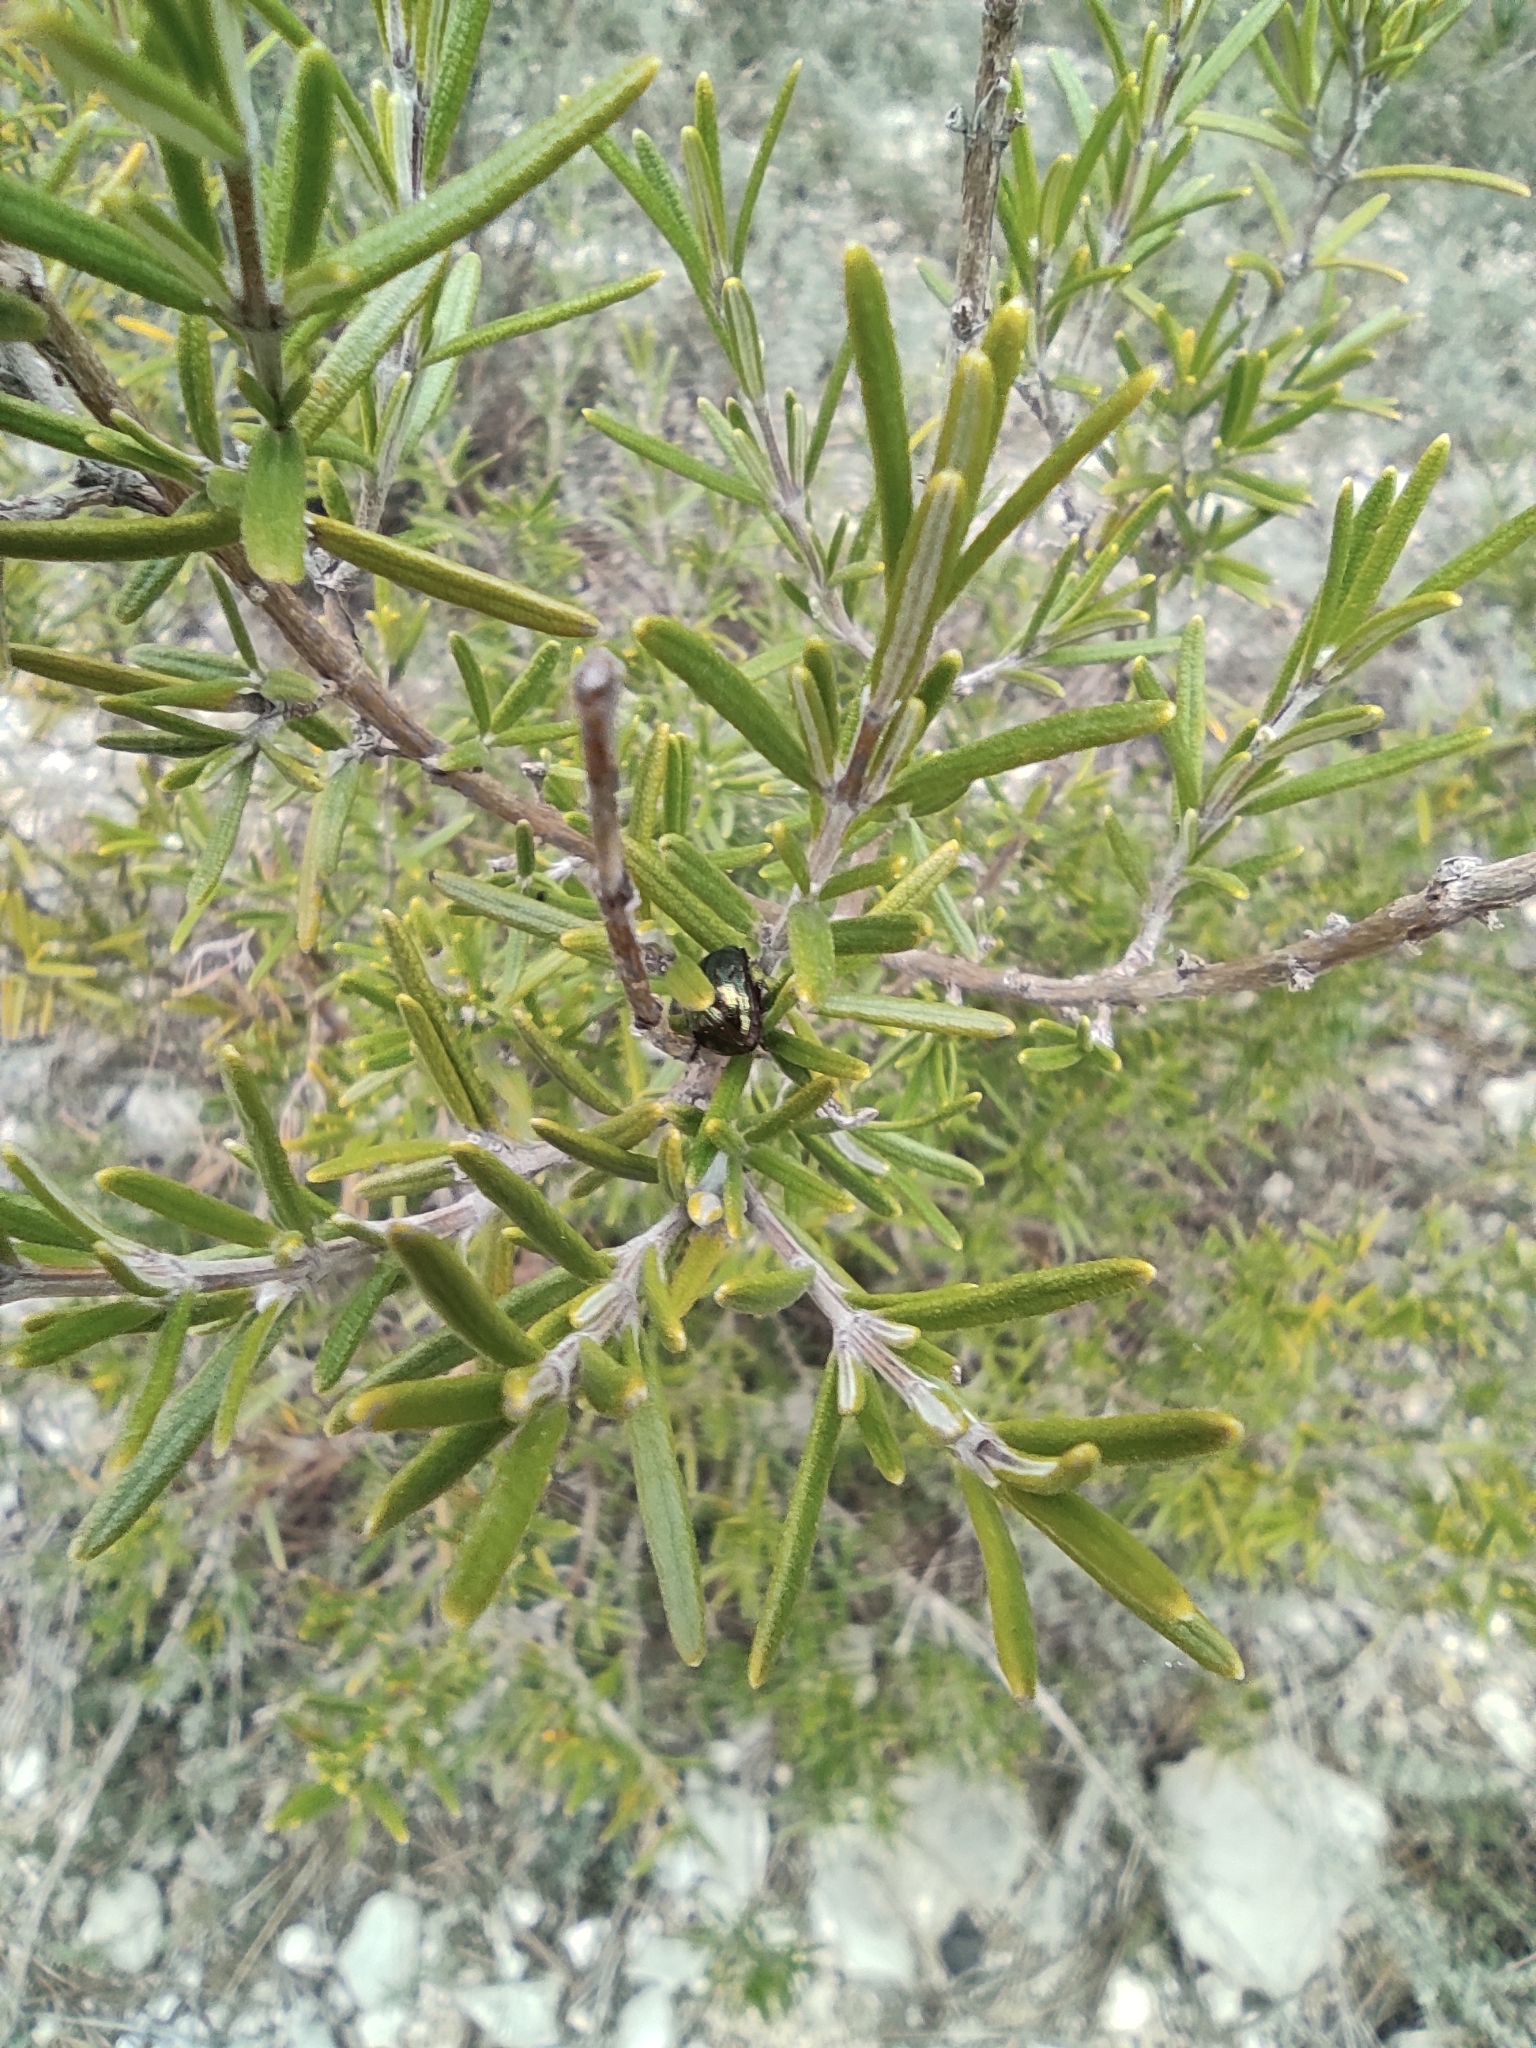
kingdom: Plantae
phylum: Tracheophyta
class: Magnoliopsida
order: Lamiales
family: Lamiaceae
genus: Salvia
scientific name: Salvia rosmarinus
